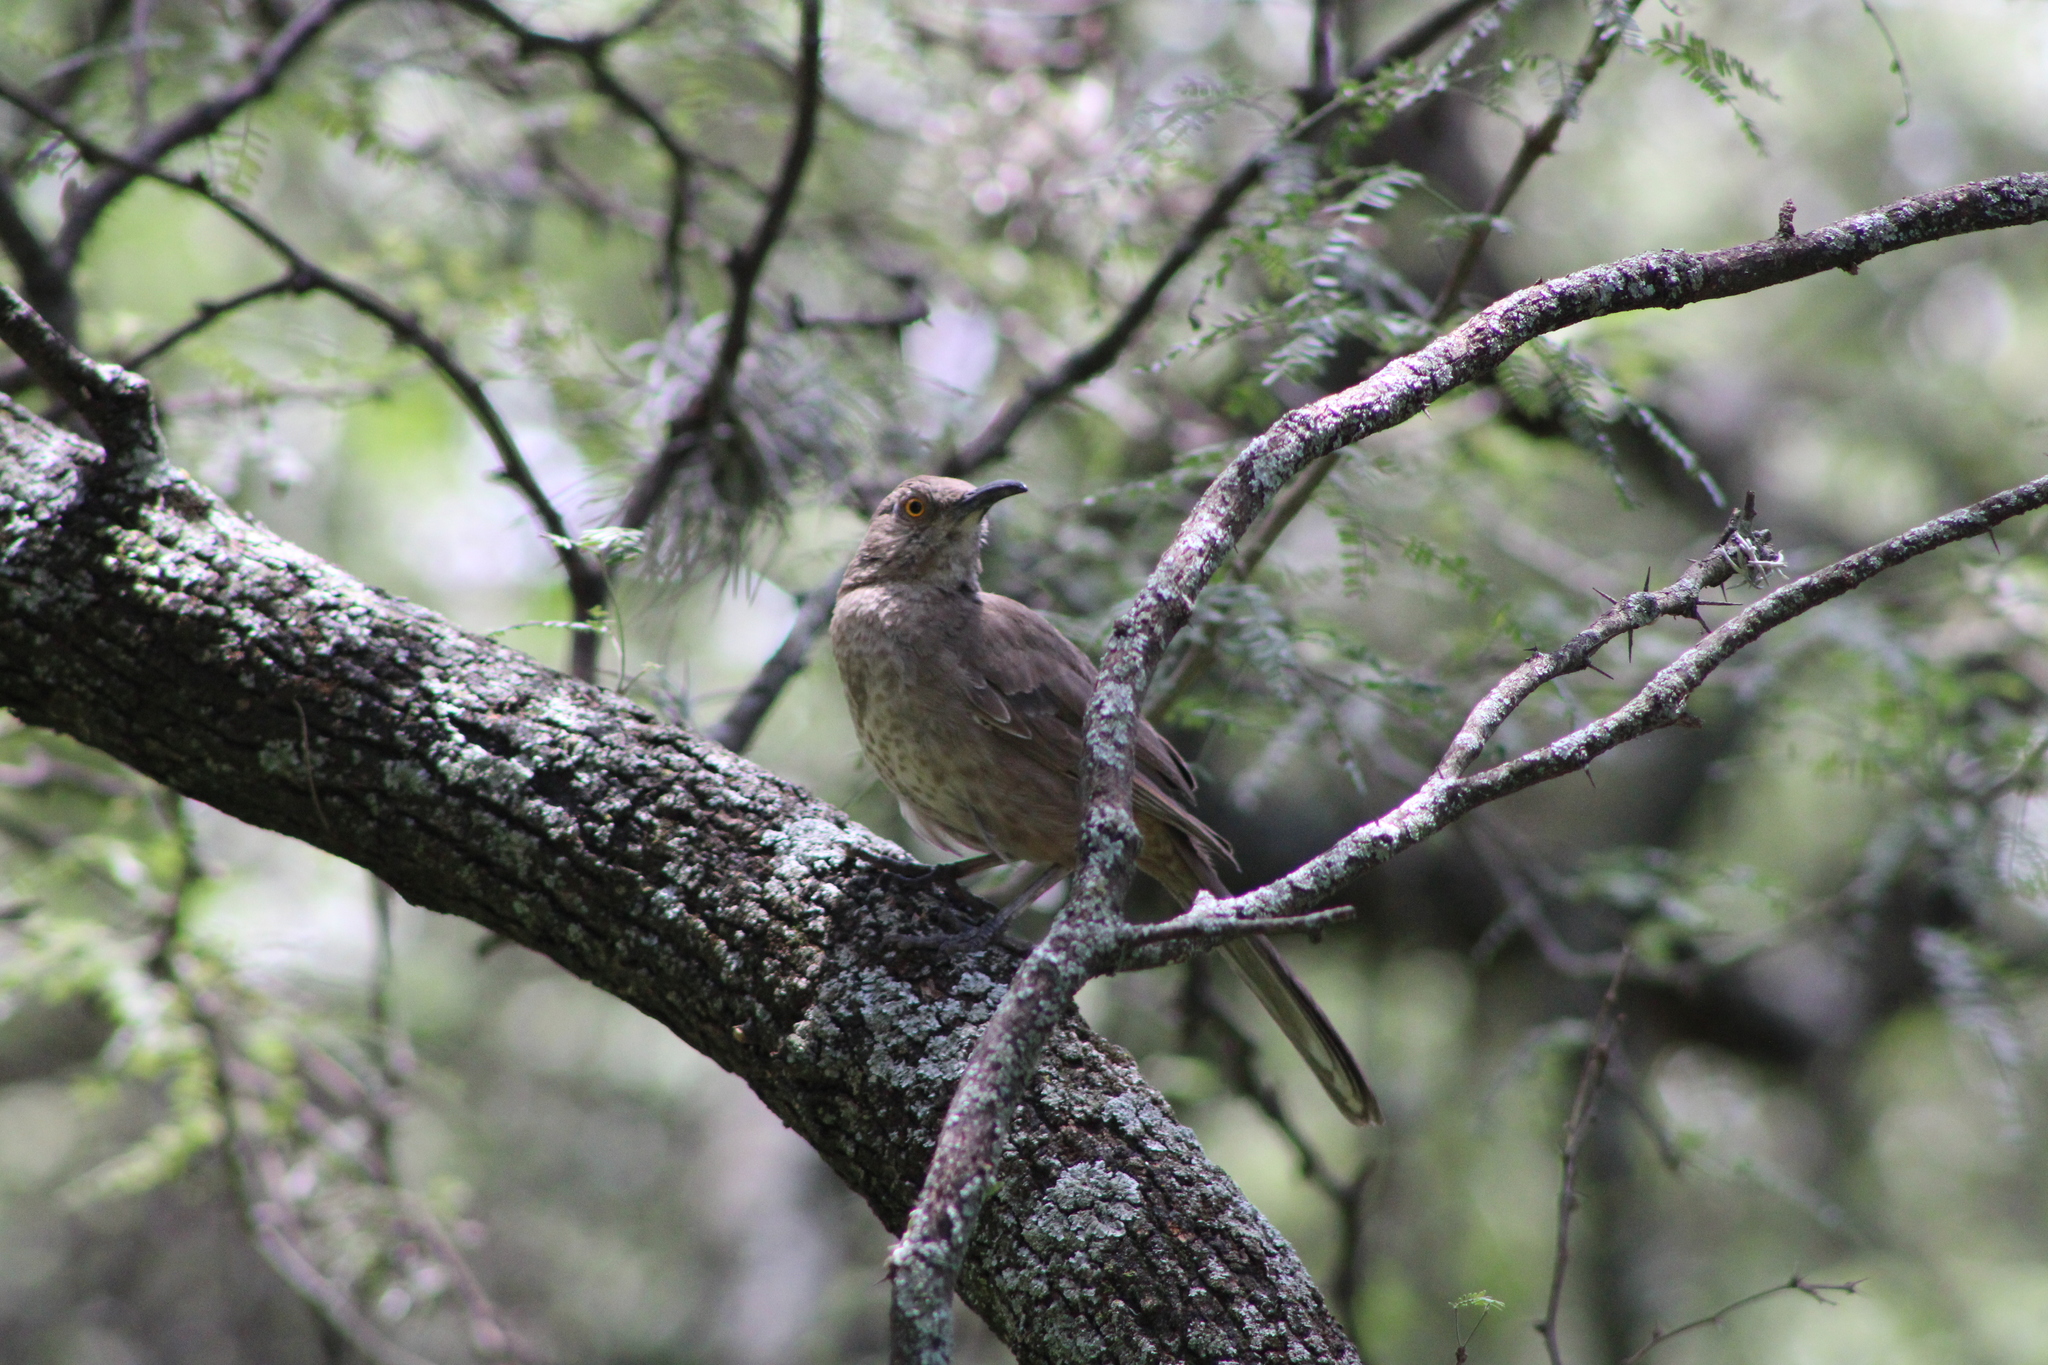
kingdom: Animalia
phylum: Chordata
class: Aves
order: Passeriformes
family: Mimidae
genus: Toxostoma
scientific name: Toxostoma curvirostre
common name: Curve-billed thrasher
